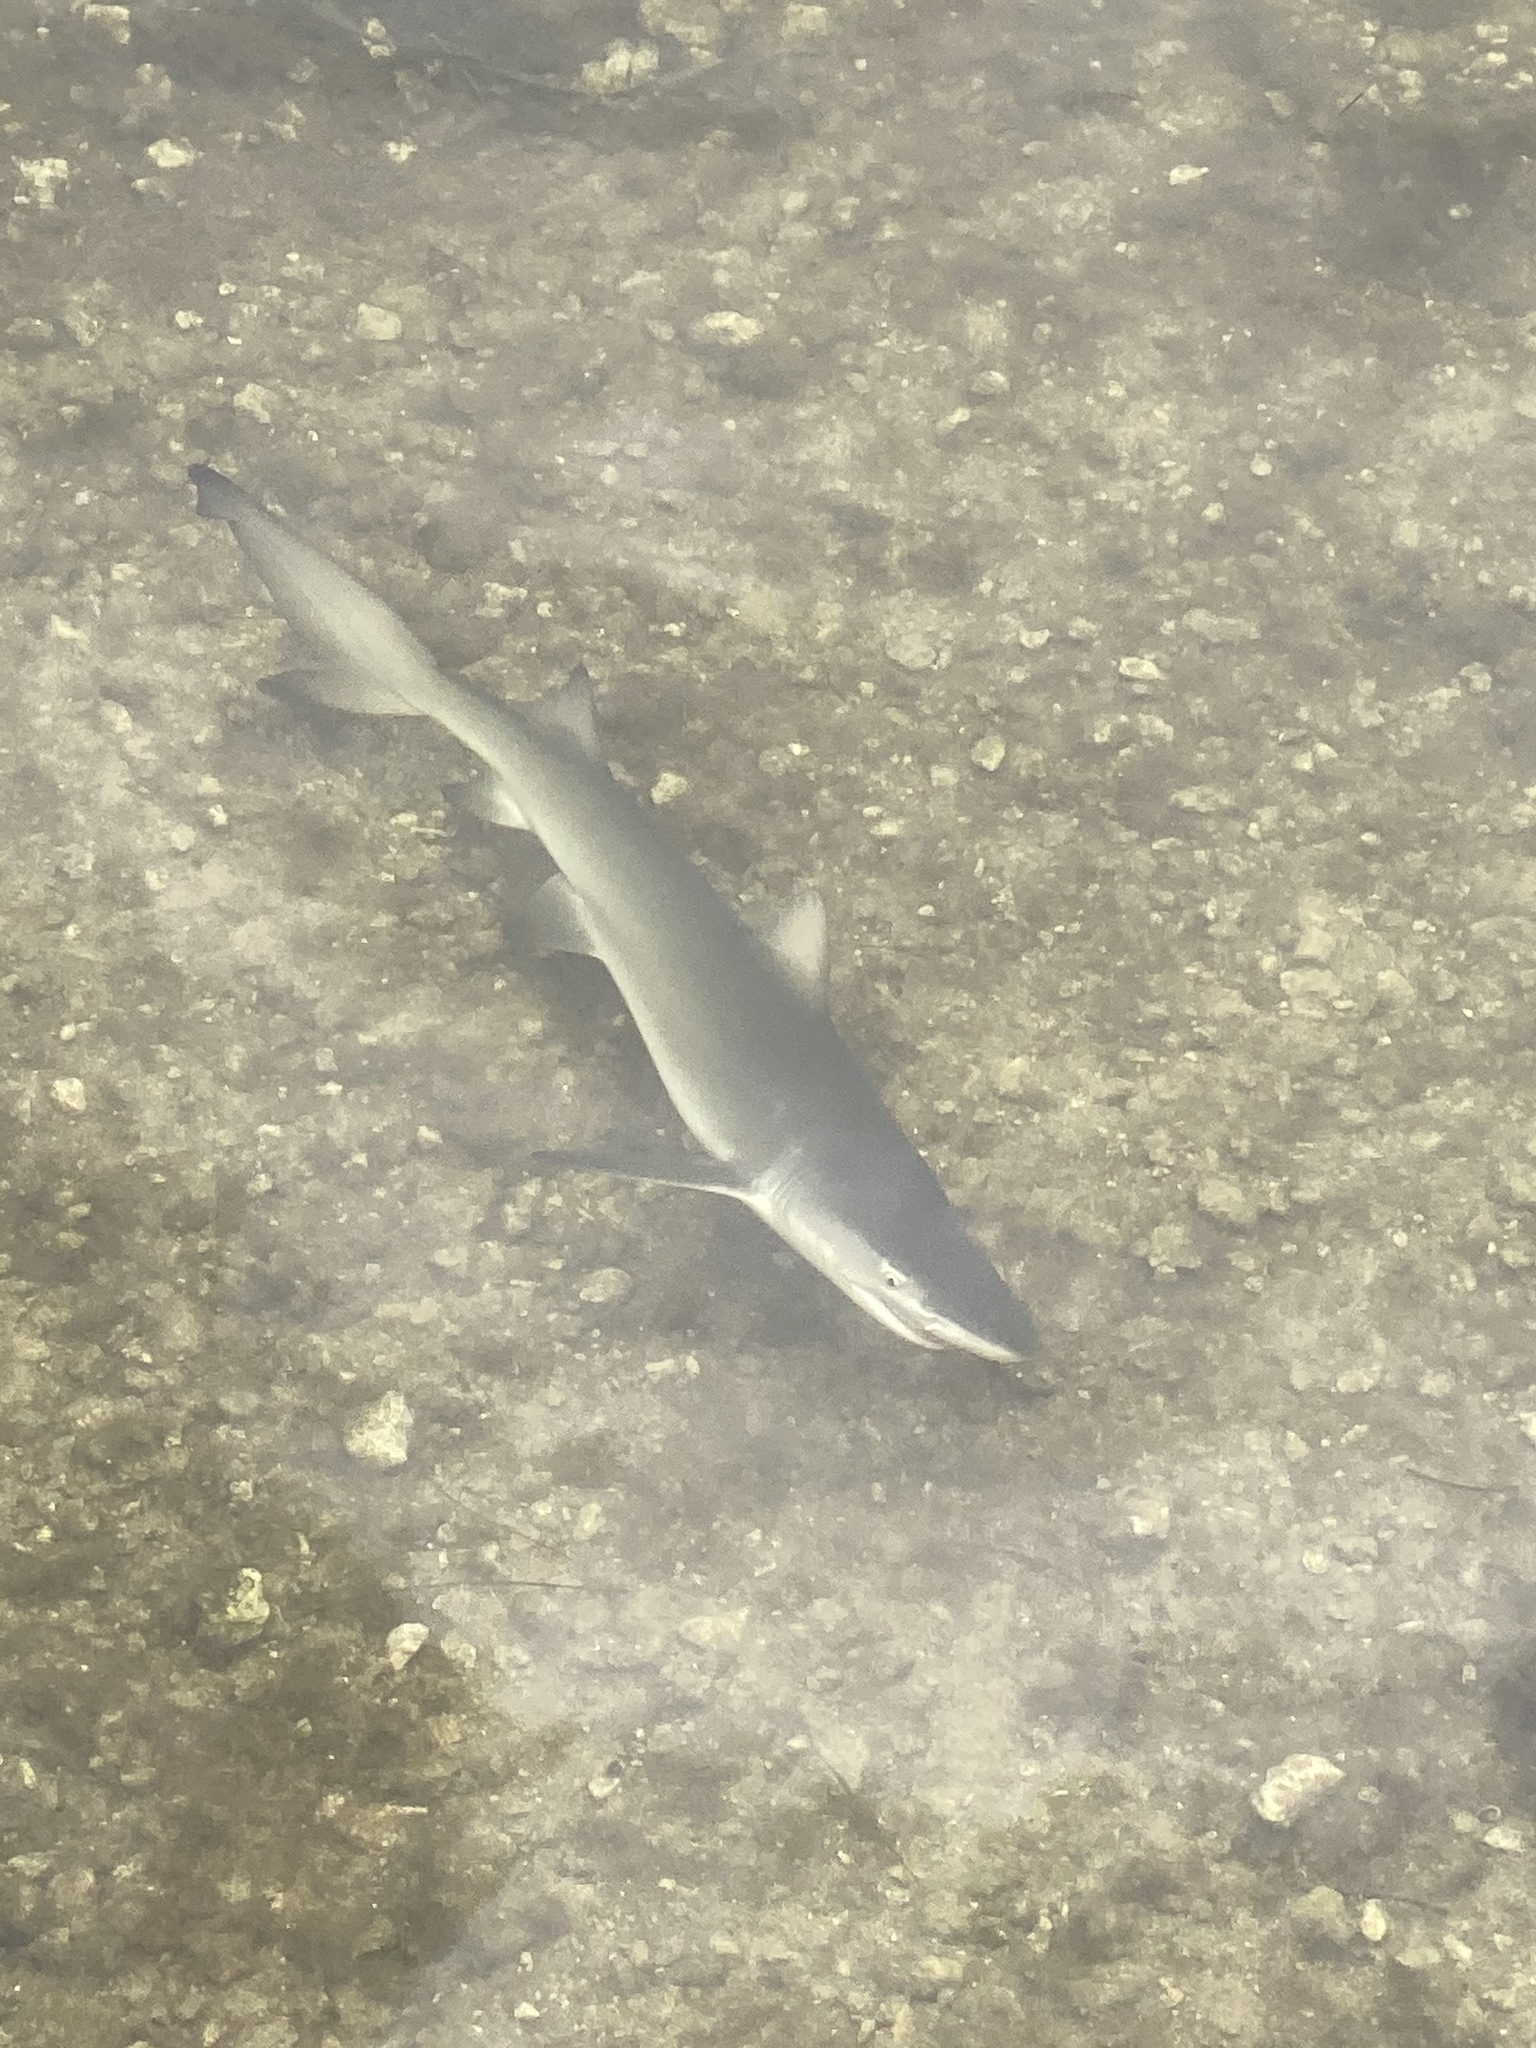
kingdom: Animalia
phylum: Chordata
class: Elasmobranchii
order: Carcharhiniformes
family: Carcharhinidae
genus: Negaprion
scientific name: Negaprion brevirostris
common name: Lemon shark
